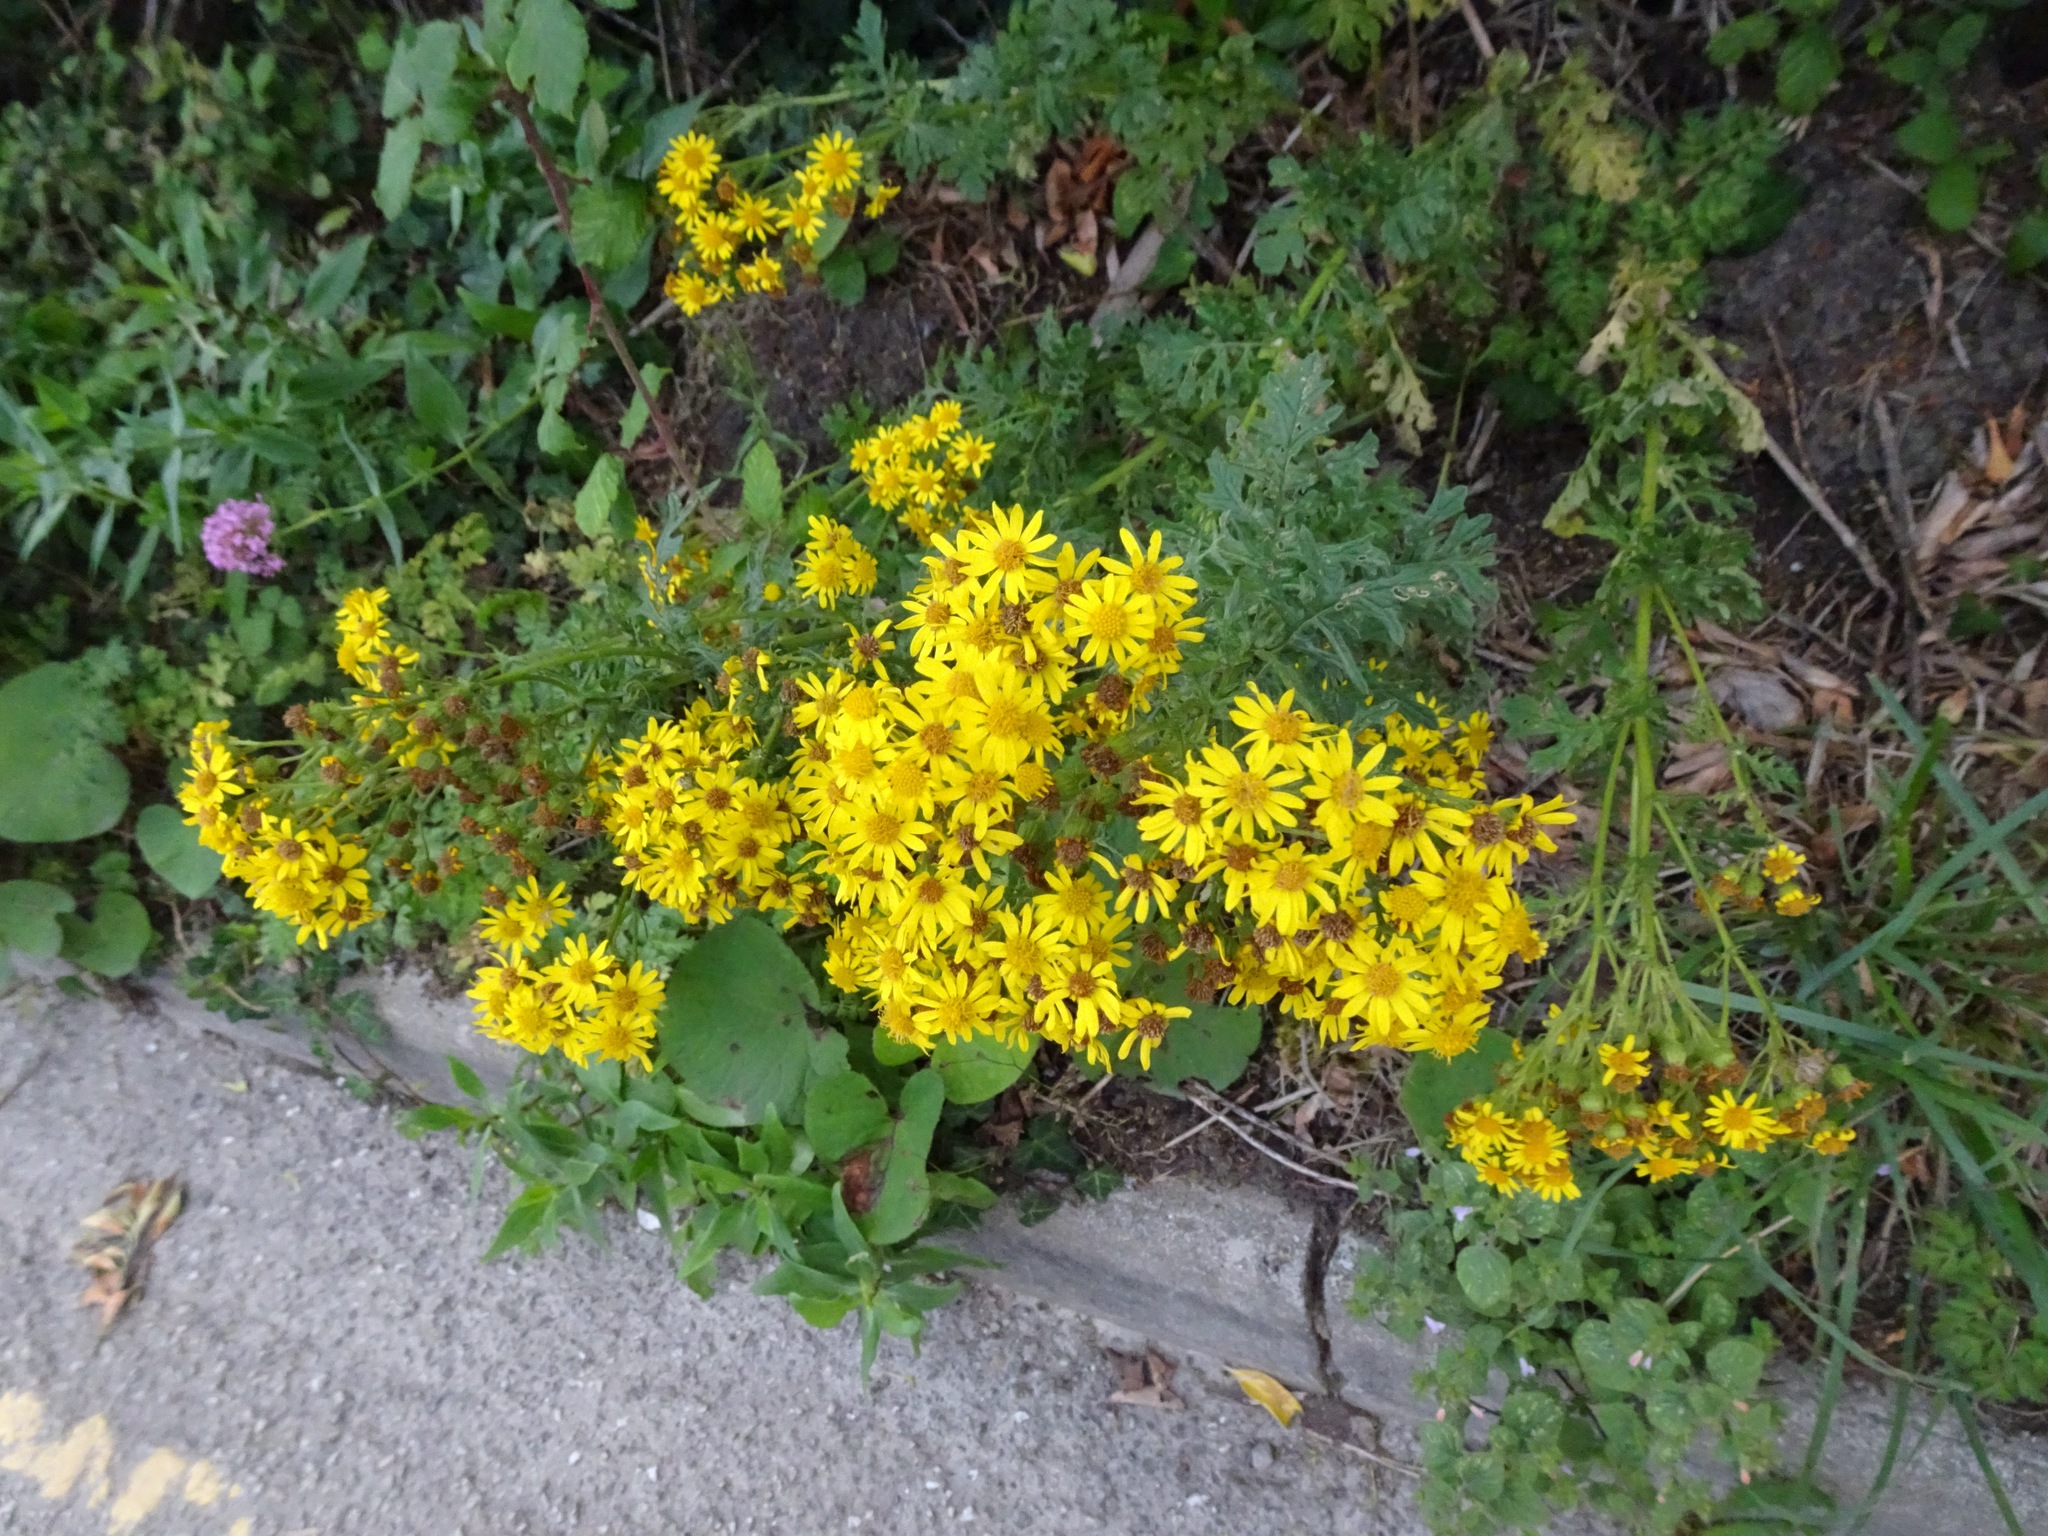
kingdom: Plantae
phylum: Tracheophyta
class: Magnoliopsida
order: Asterales
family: Asteraceae
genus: Jacobaea
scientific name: Jacobaea vulgaris
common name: Stinking willie
